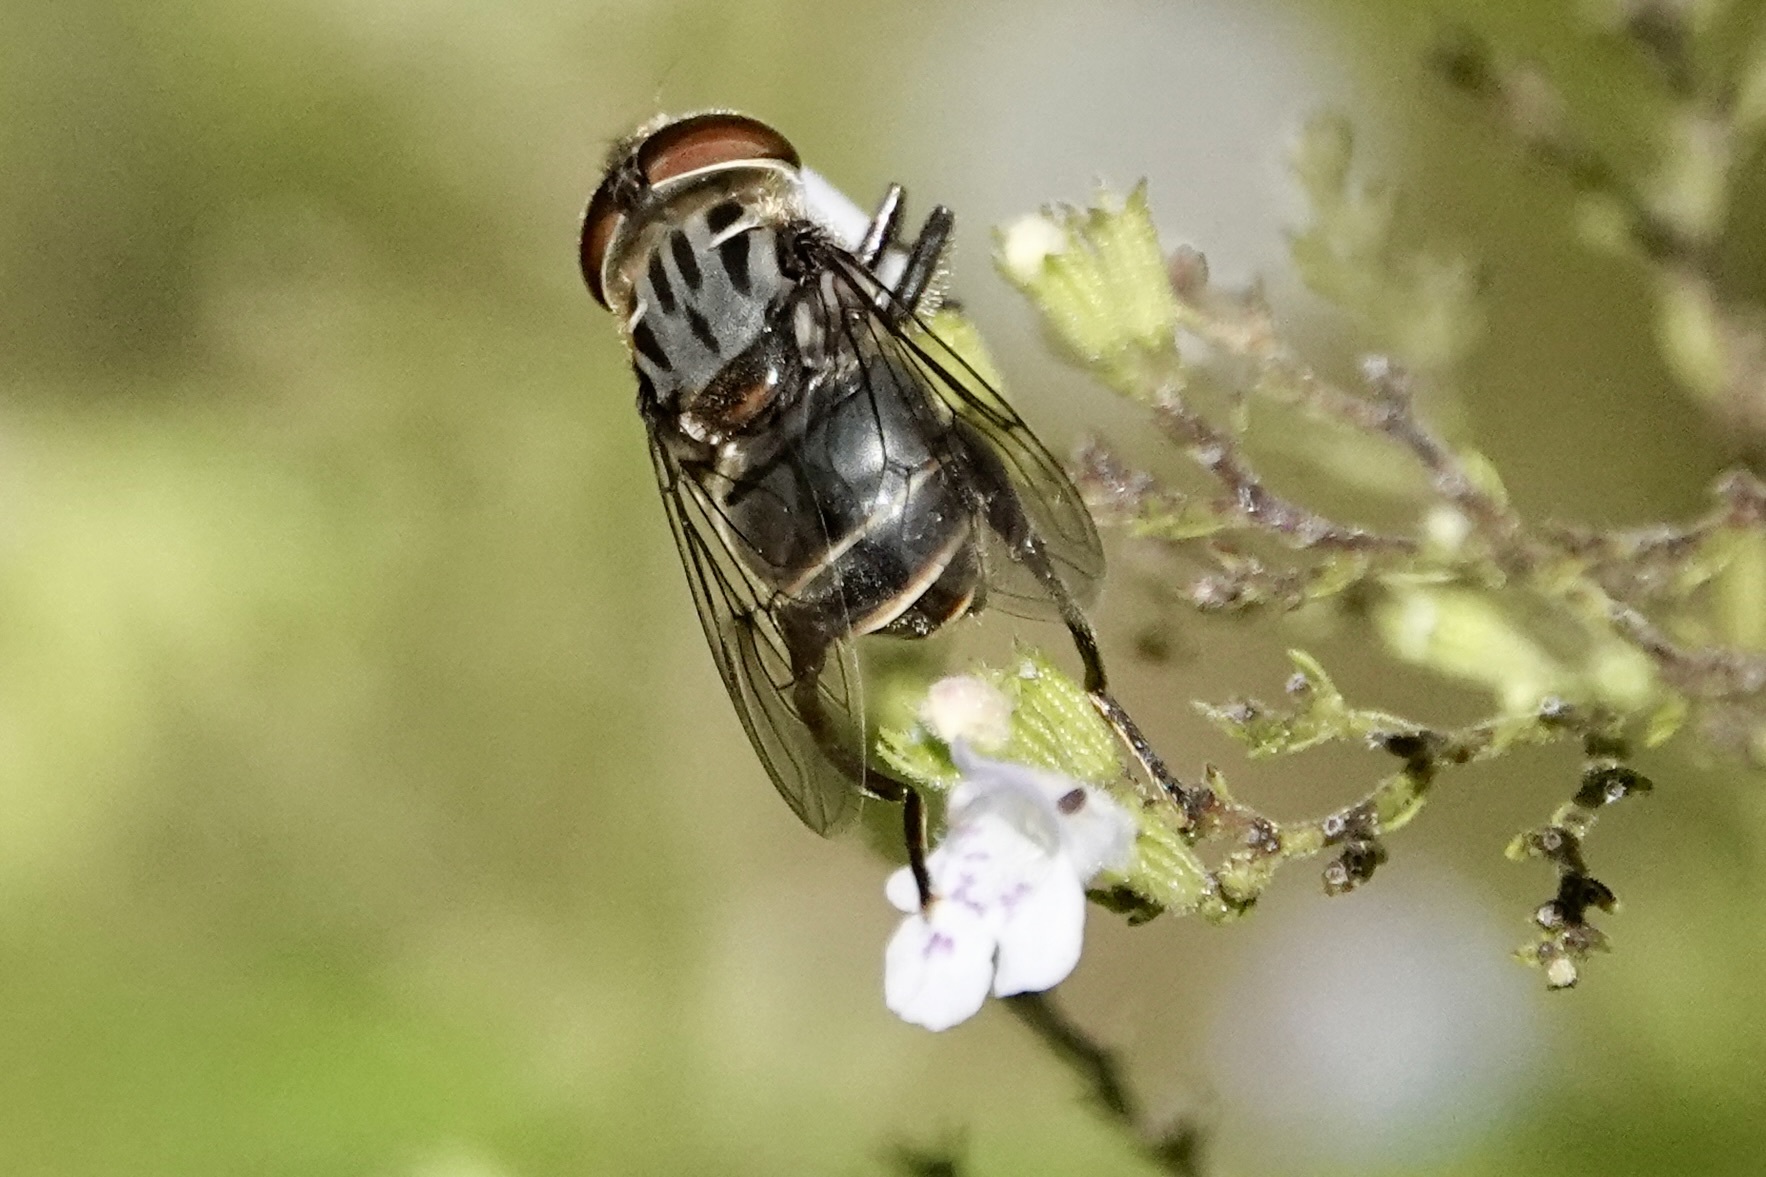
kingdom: Animalia
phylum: Arthropoda
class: Insecta
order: Diptera
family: Syrphidae
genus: Palpada
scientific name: Palpada furcata
